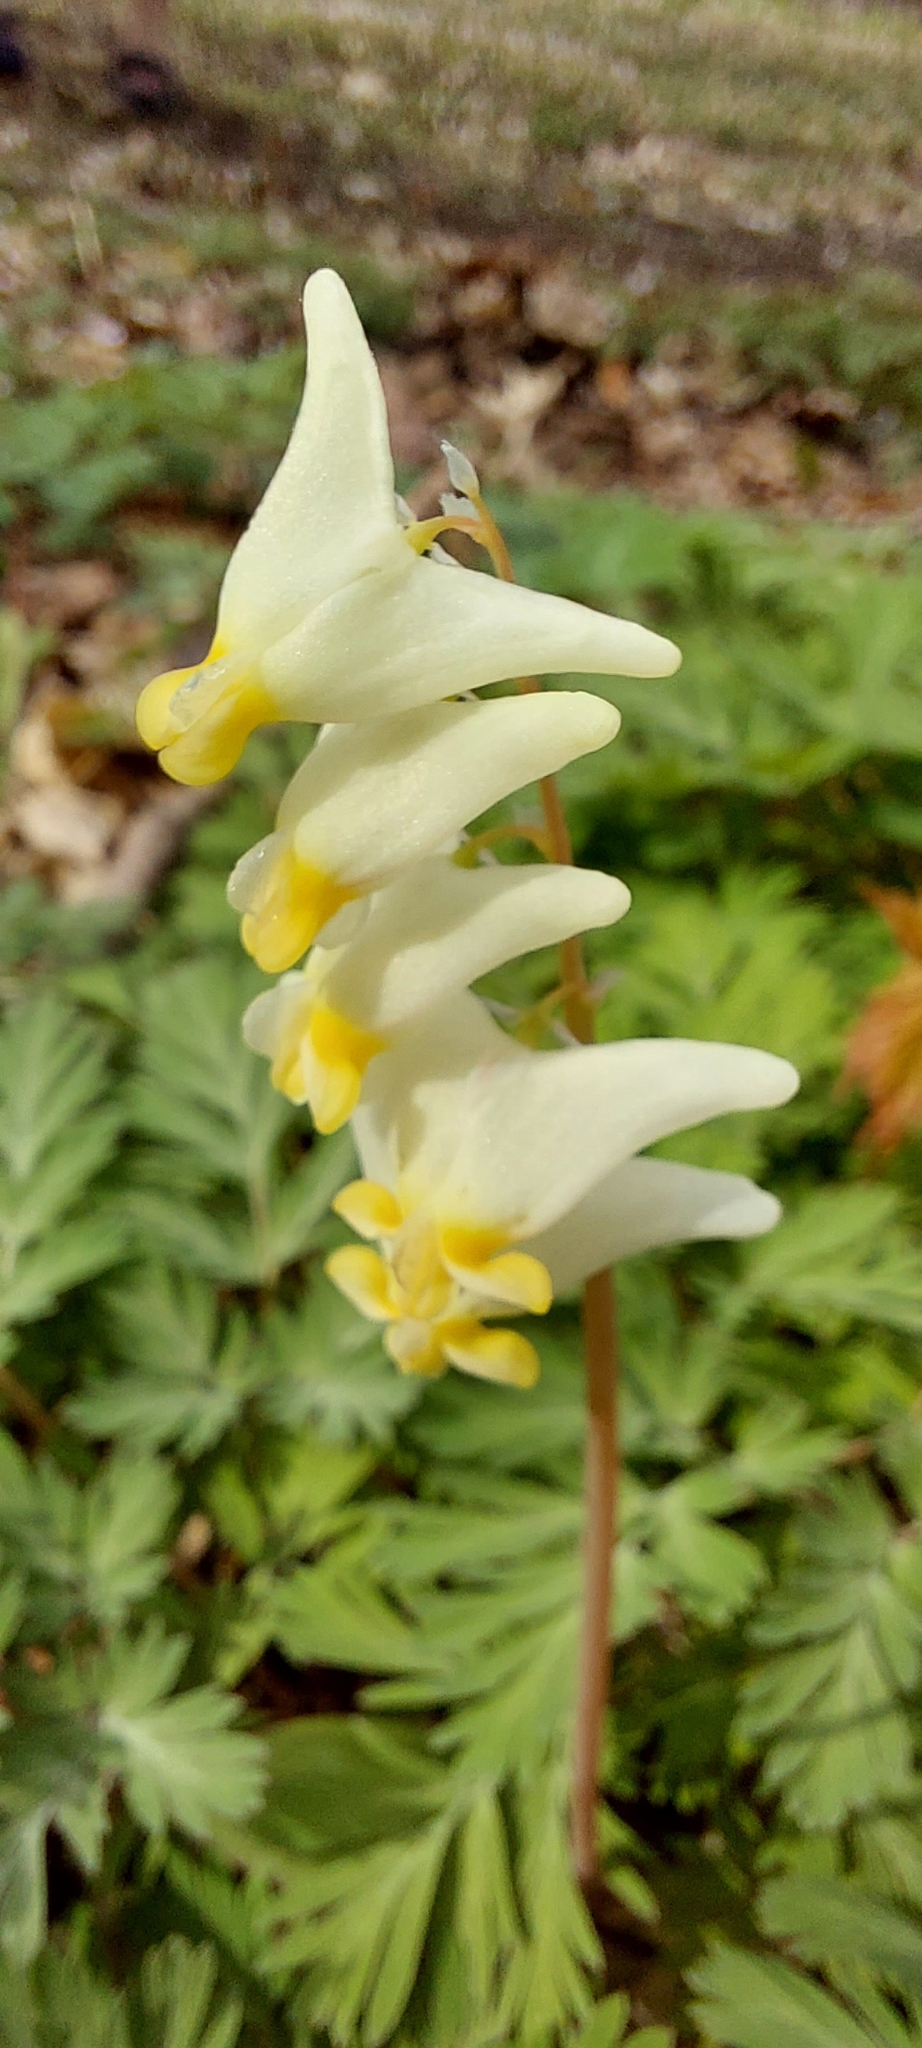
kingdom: Plantae
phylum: Tracheophyta
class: Magnoliopsida
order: Ranunculales
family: Papaveraceae
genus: Dicentra
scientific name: Dicentra cucullaria
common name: Dutchman's breeches
